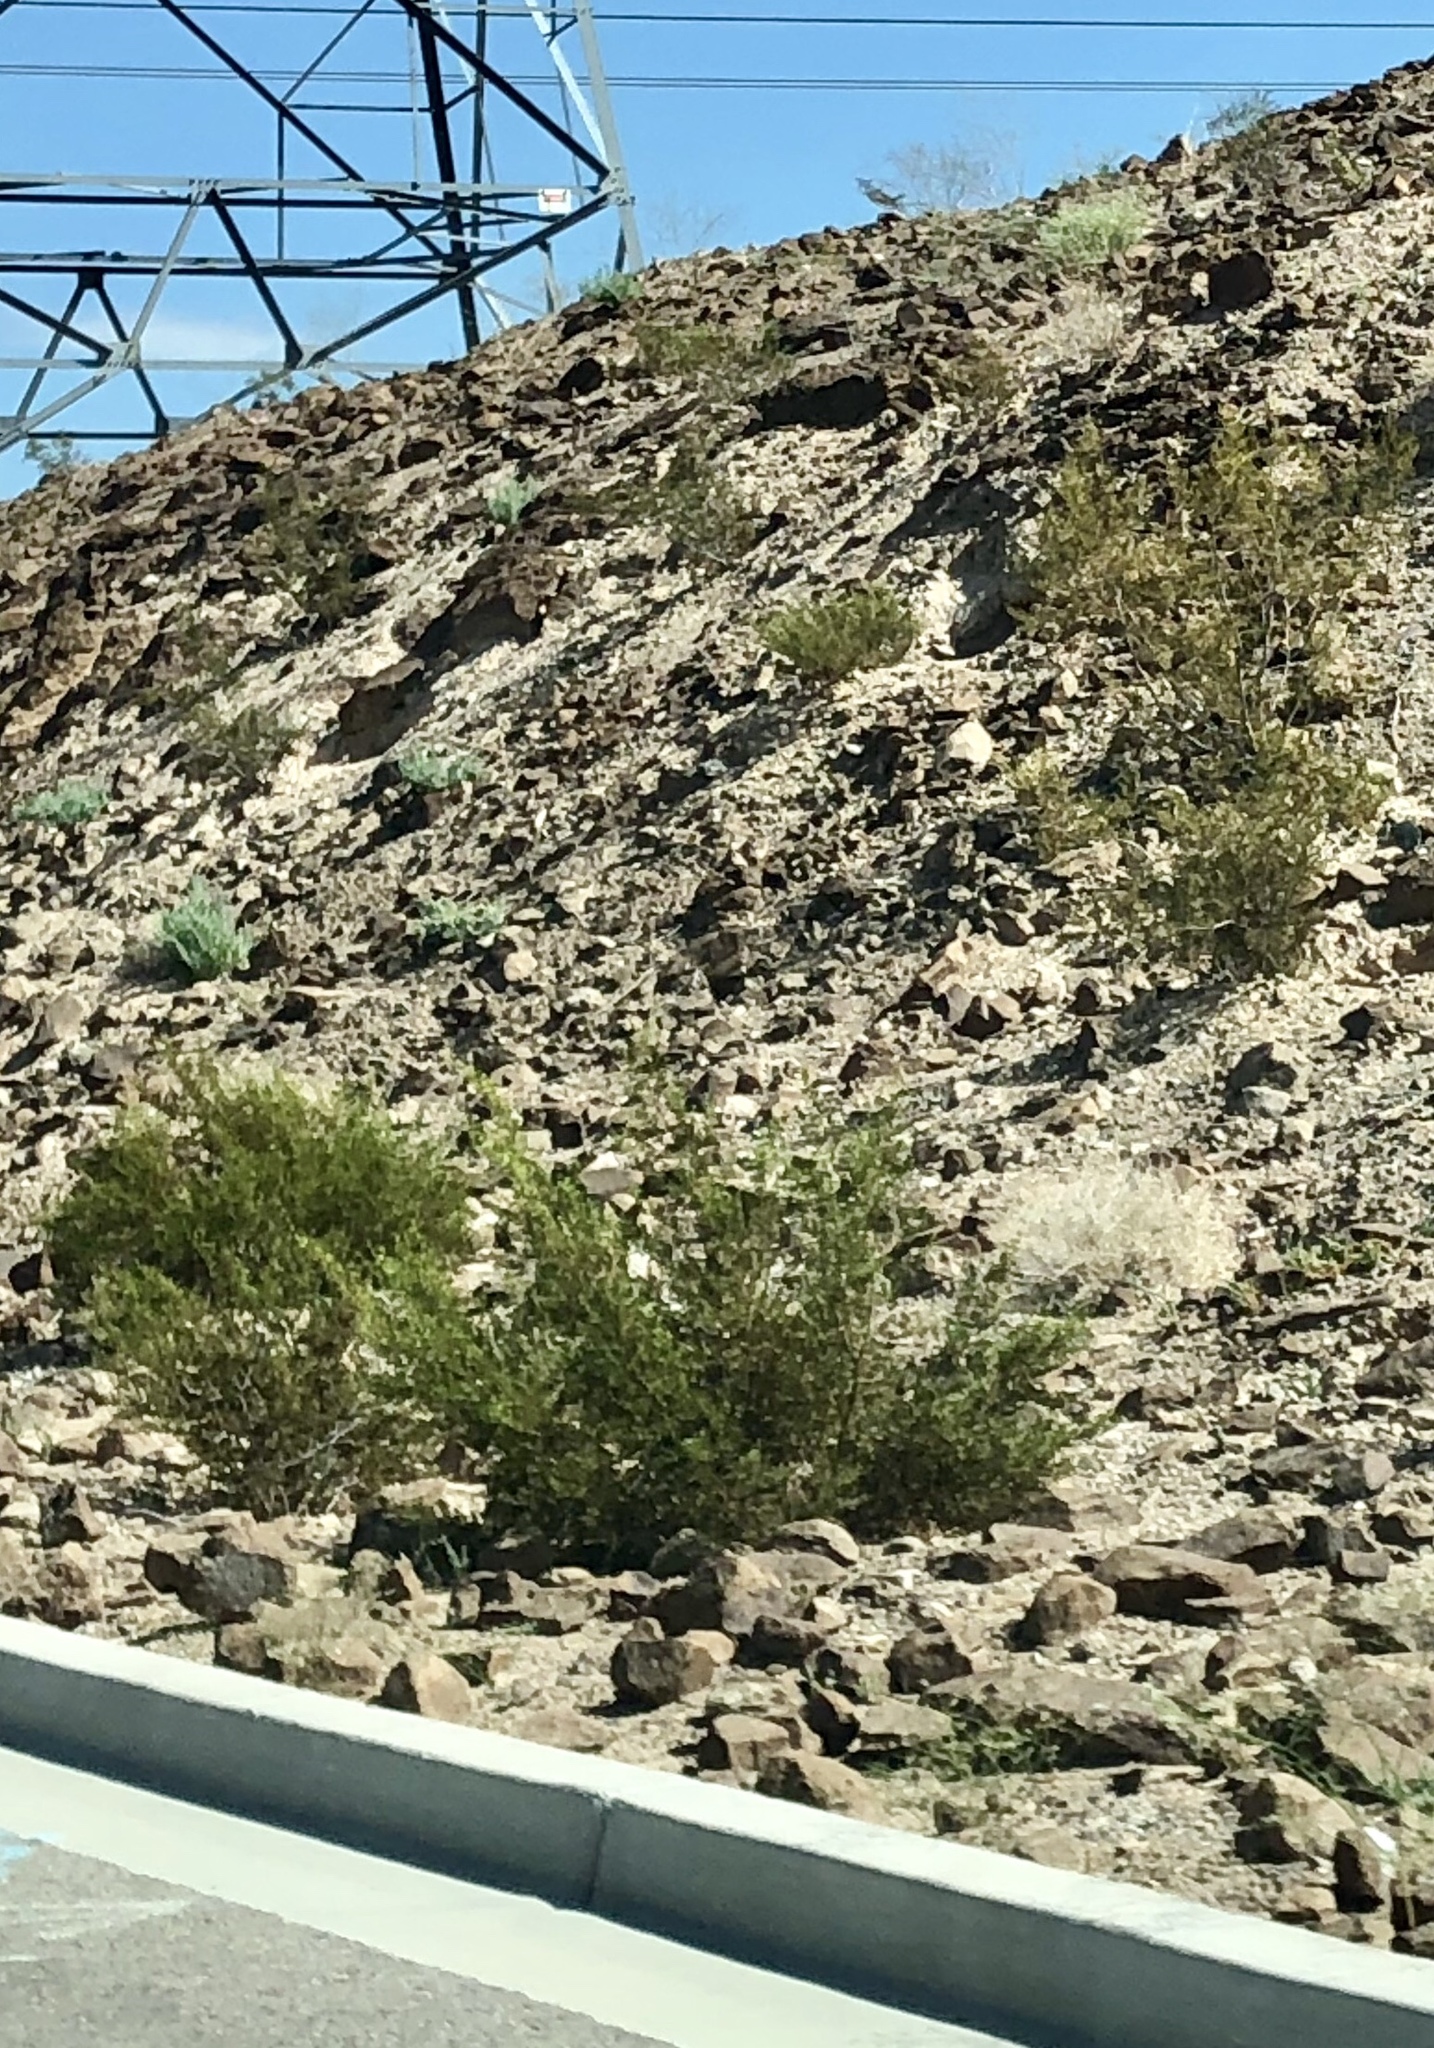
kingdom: Plantae
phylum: Tracheophyta
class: Magnoliopsida
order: Zygophyllales
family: Zygophyllaceae
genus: Larrea
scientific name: Larrea tridentata
